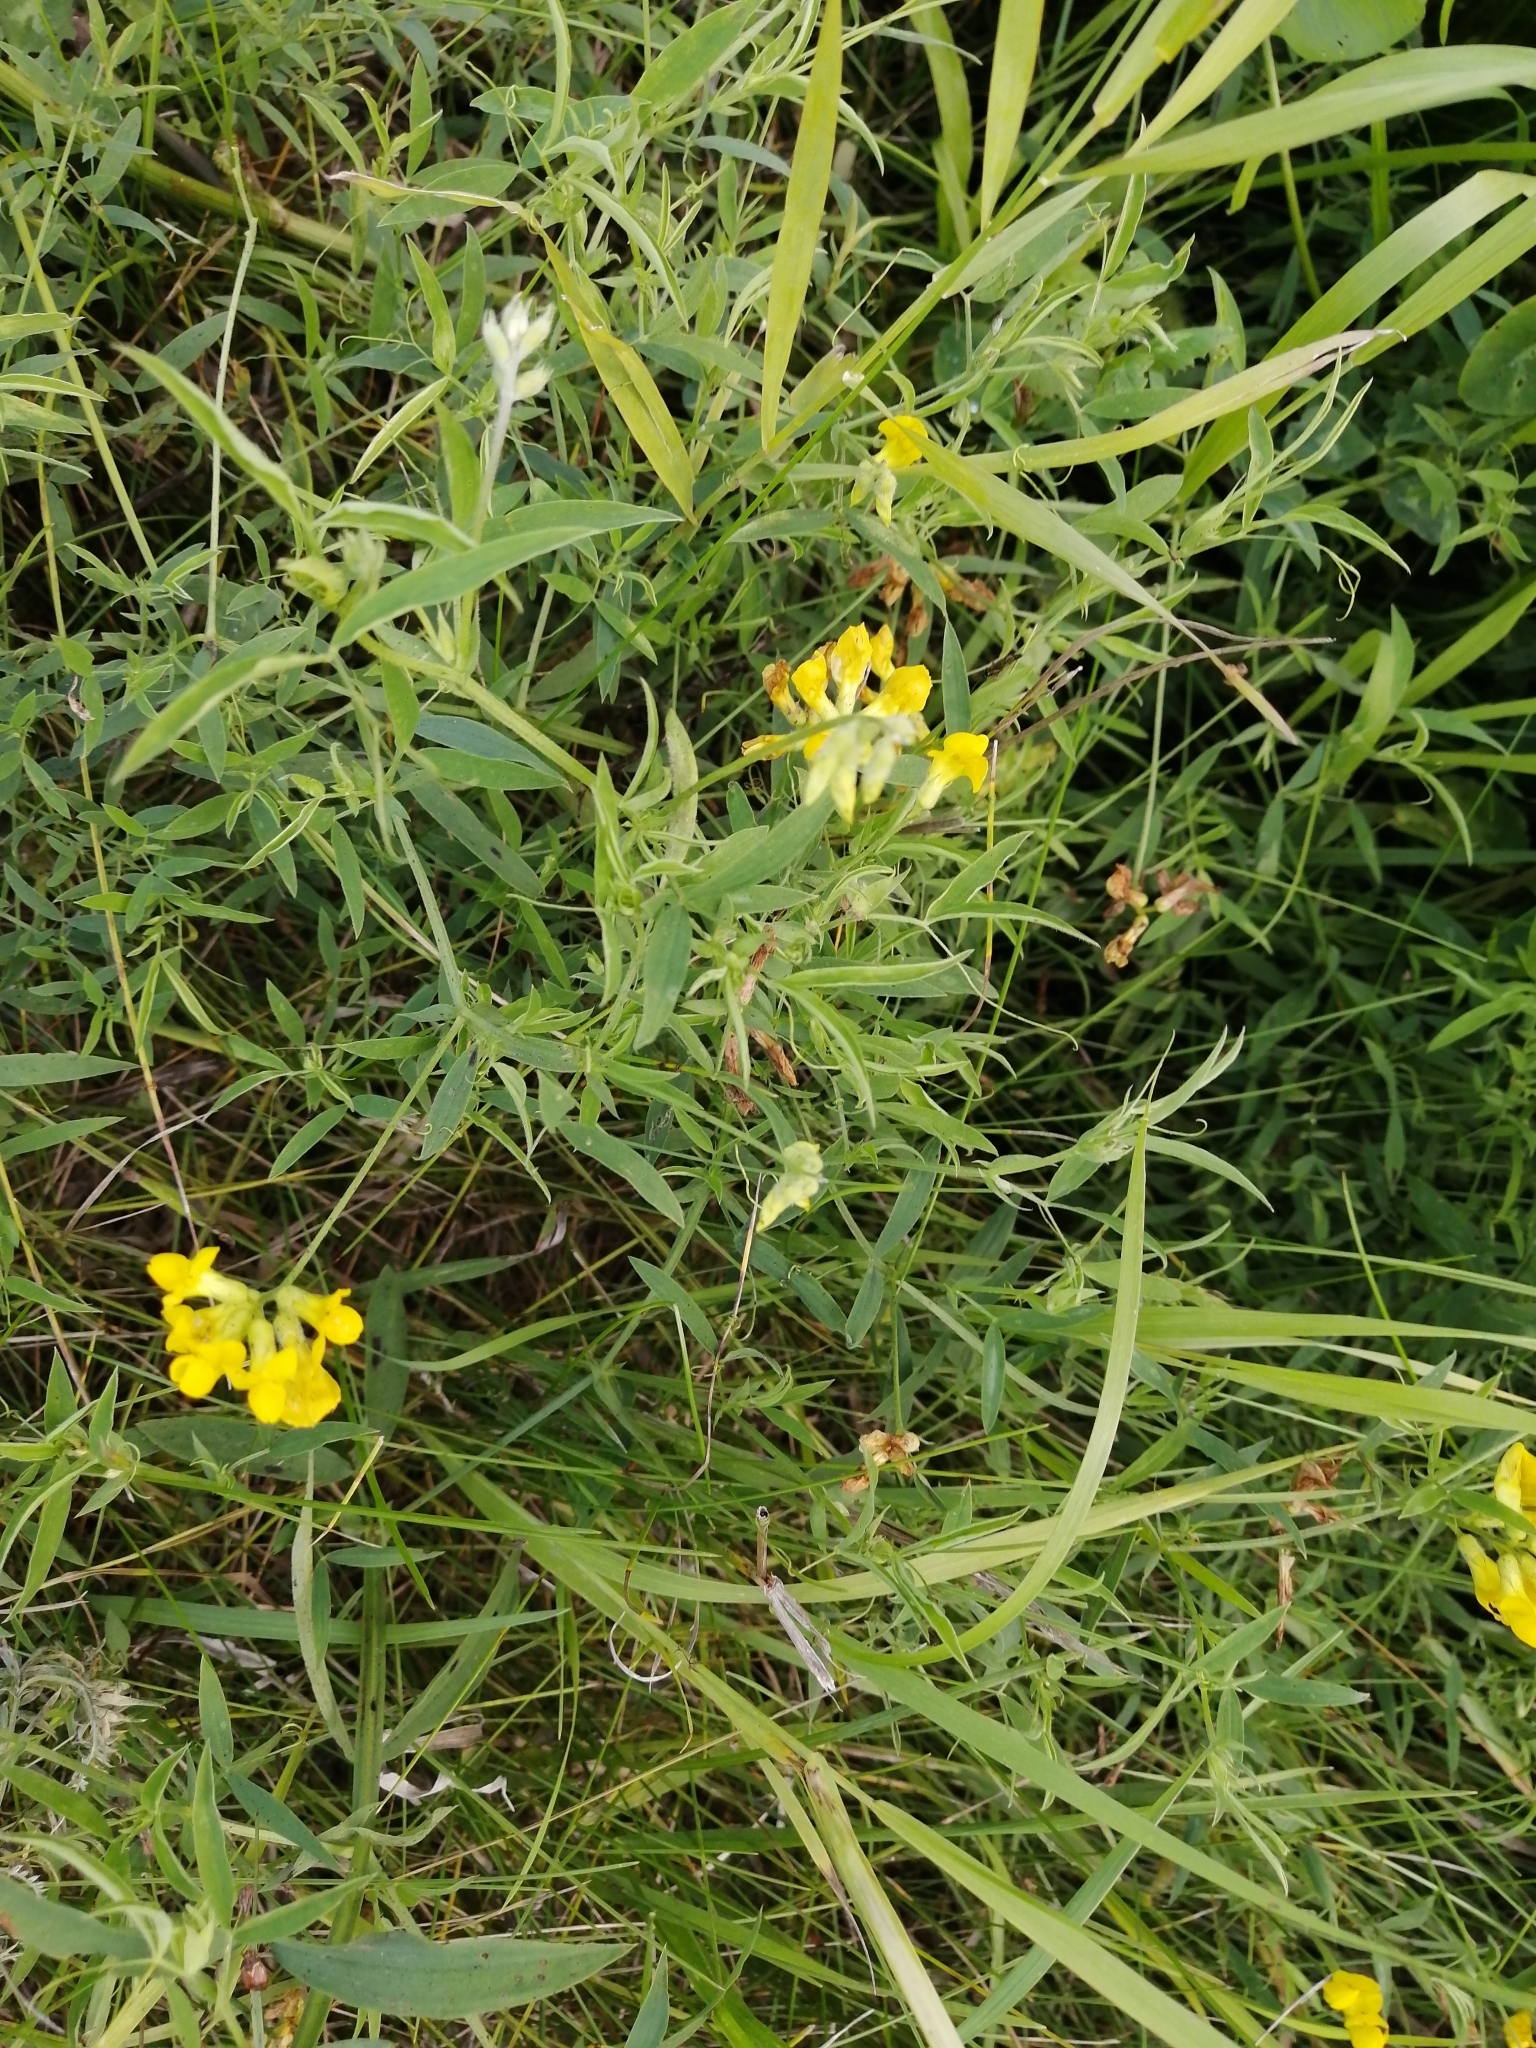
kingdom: Plantae
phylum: Tracheophyta
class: Magnoliopsida
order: Fabales
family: Fabaceae
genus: Lathyrus
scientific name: Lathyrus pratensis
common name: Meadow vetchling
